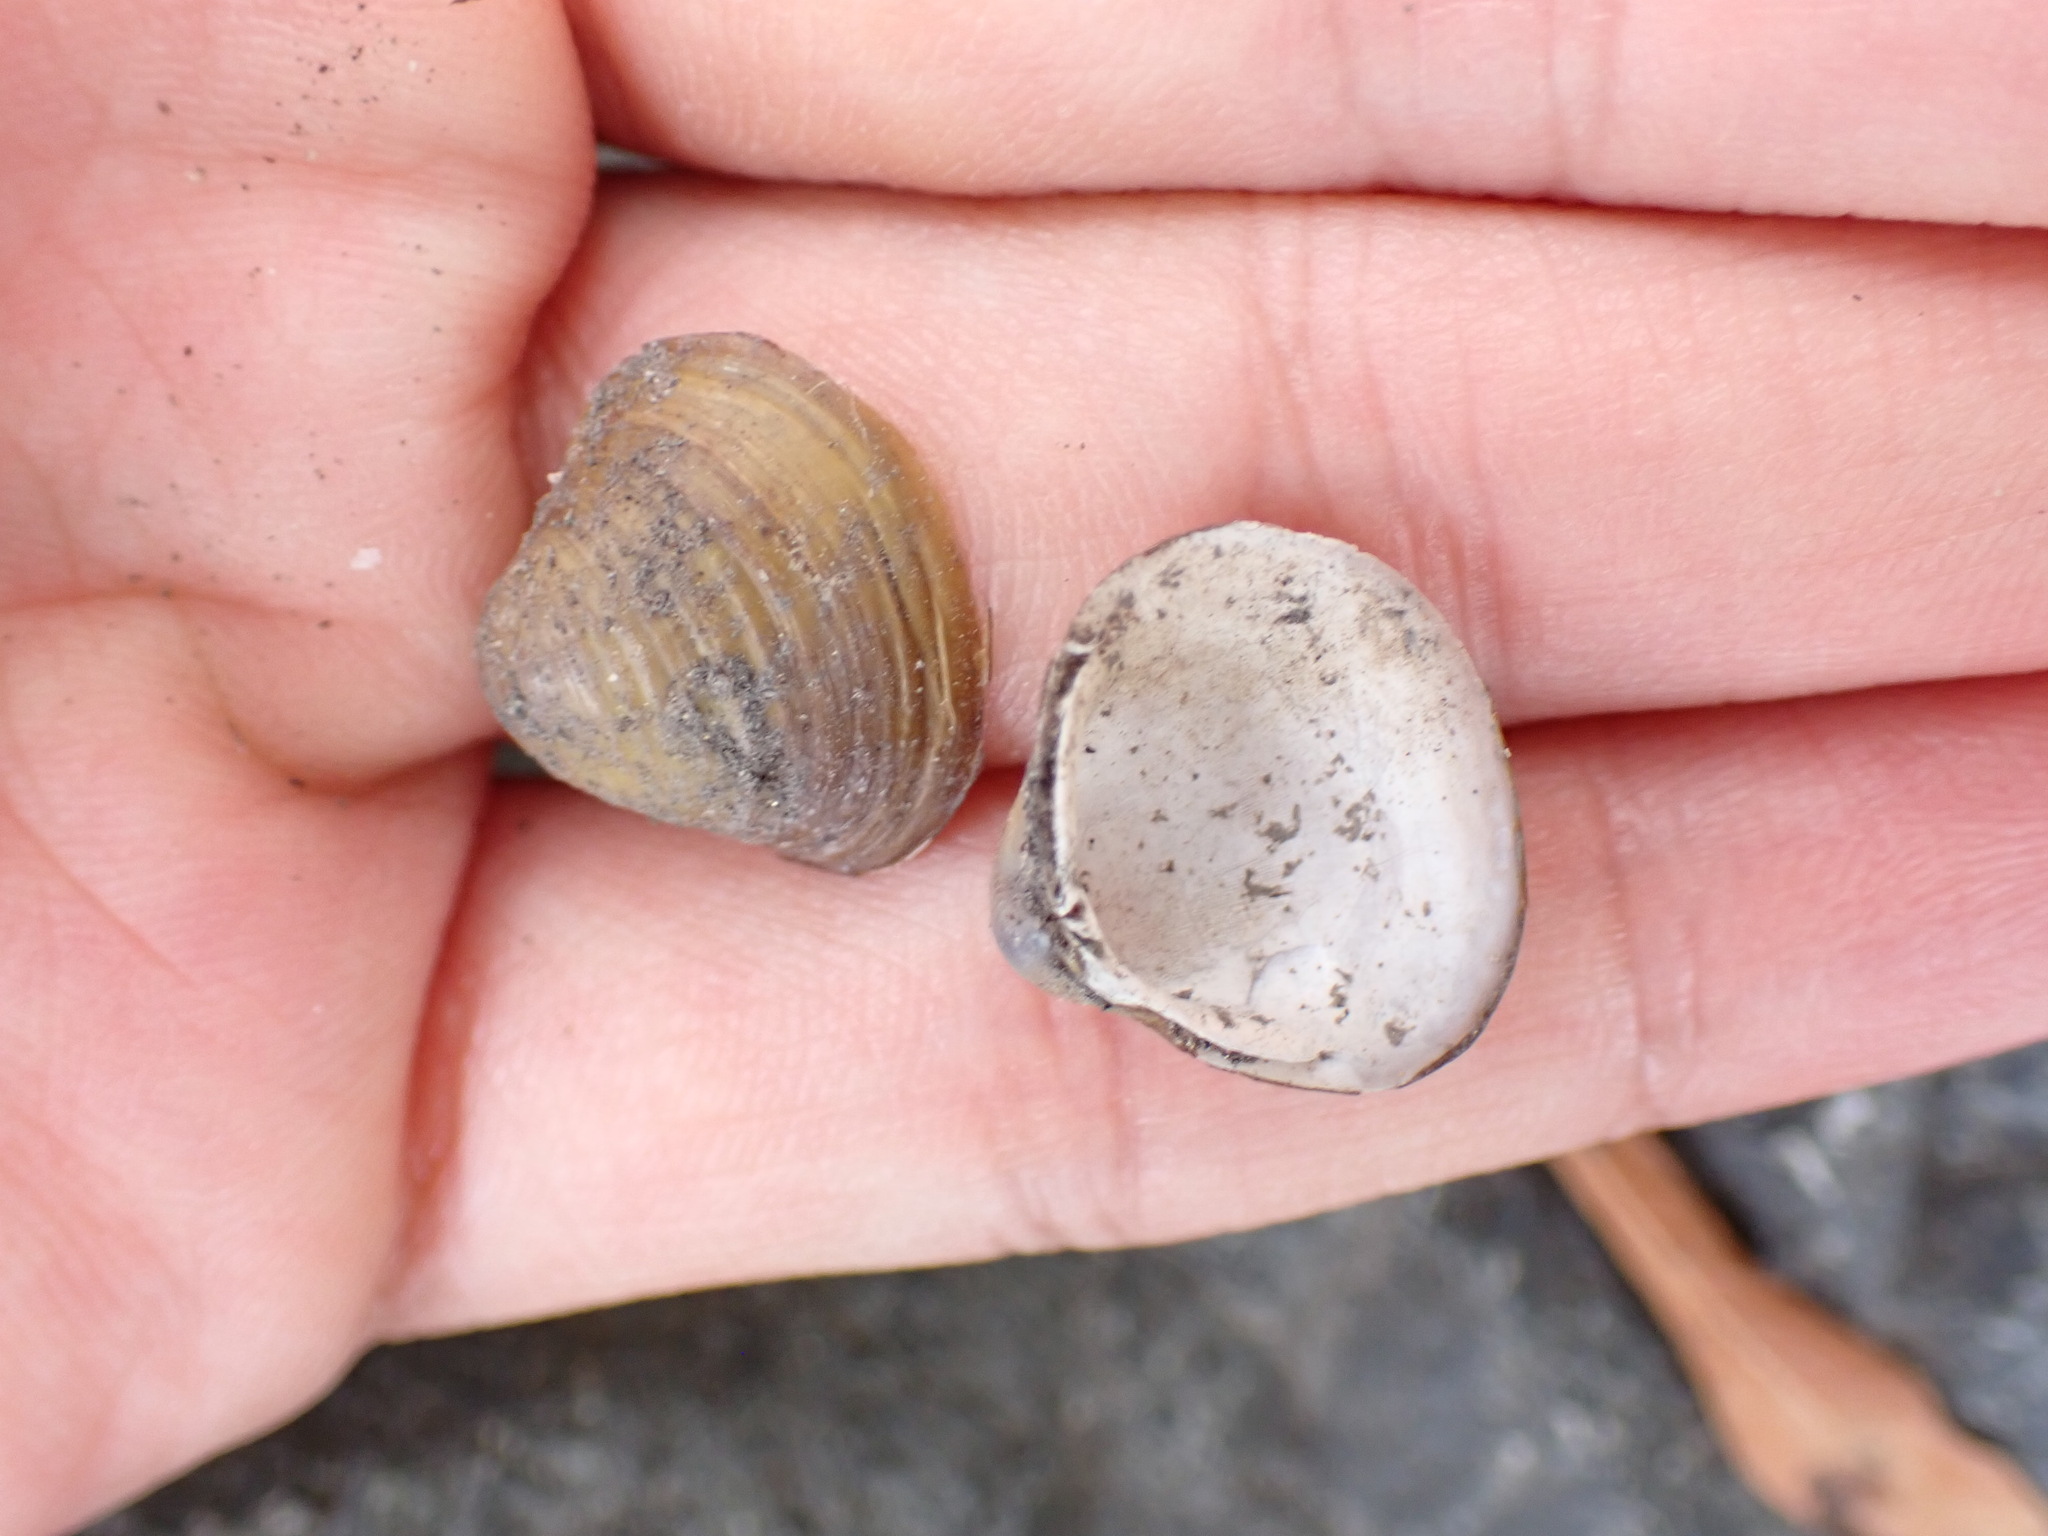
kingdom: Animalia
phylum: Mollusca
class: Bivalvia
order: Venerida
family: Cyrenidae
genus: Corbicula
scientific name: Corbicula fluminea
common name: Asian clam
